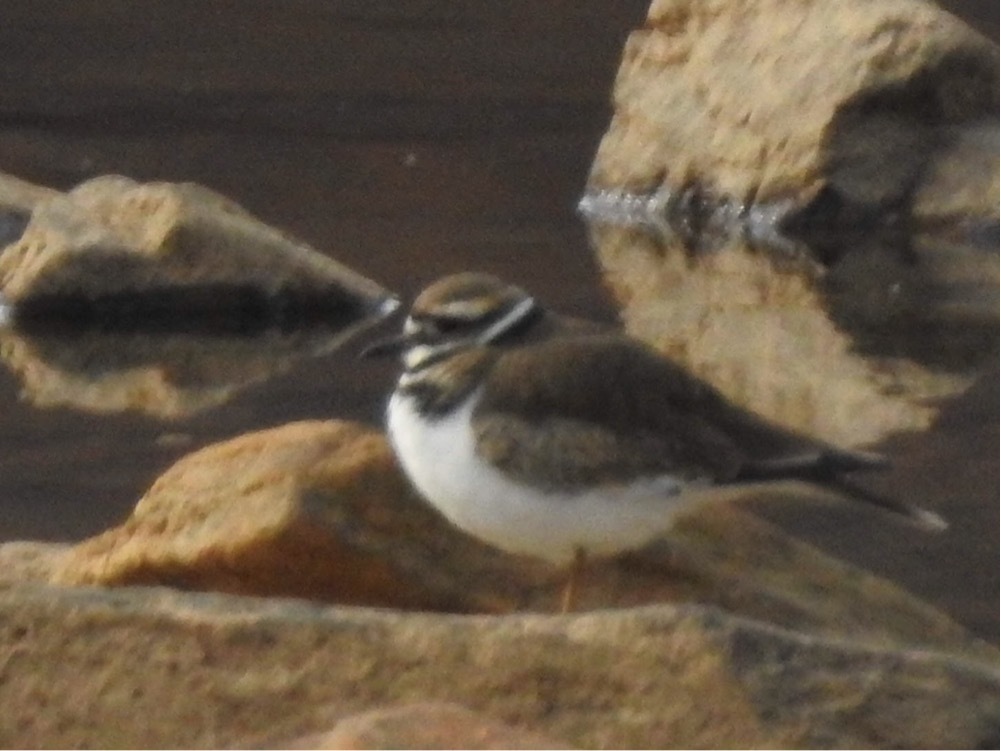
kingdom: Animalia
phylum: Chordata
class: Aves
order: Charadriiformes
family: Charadriidae
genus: Charadrius
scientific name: Charadrius vociferus
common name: Killdeer
